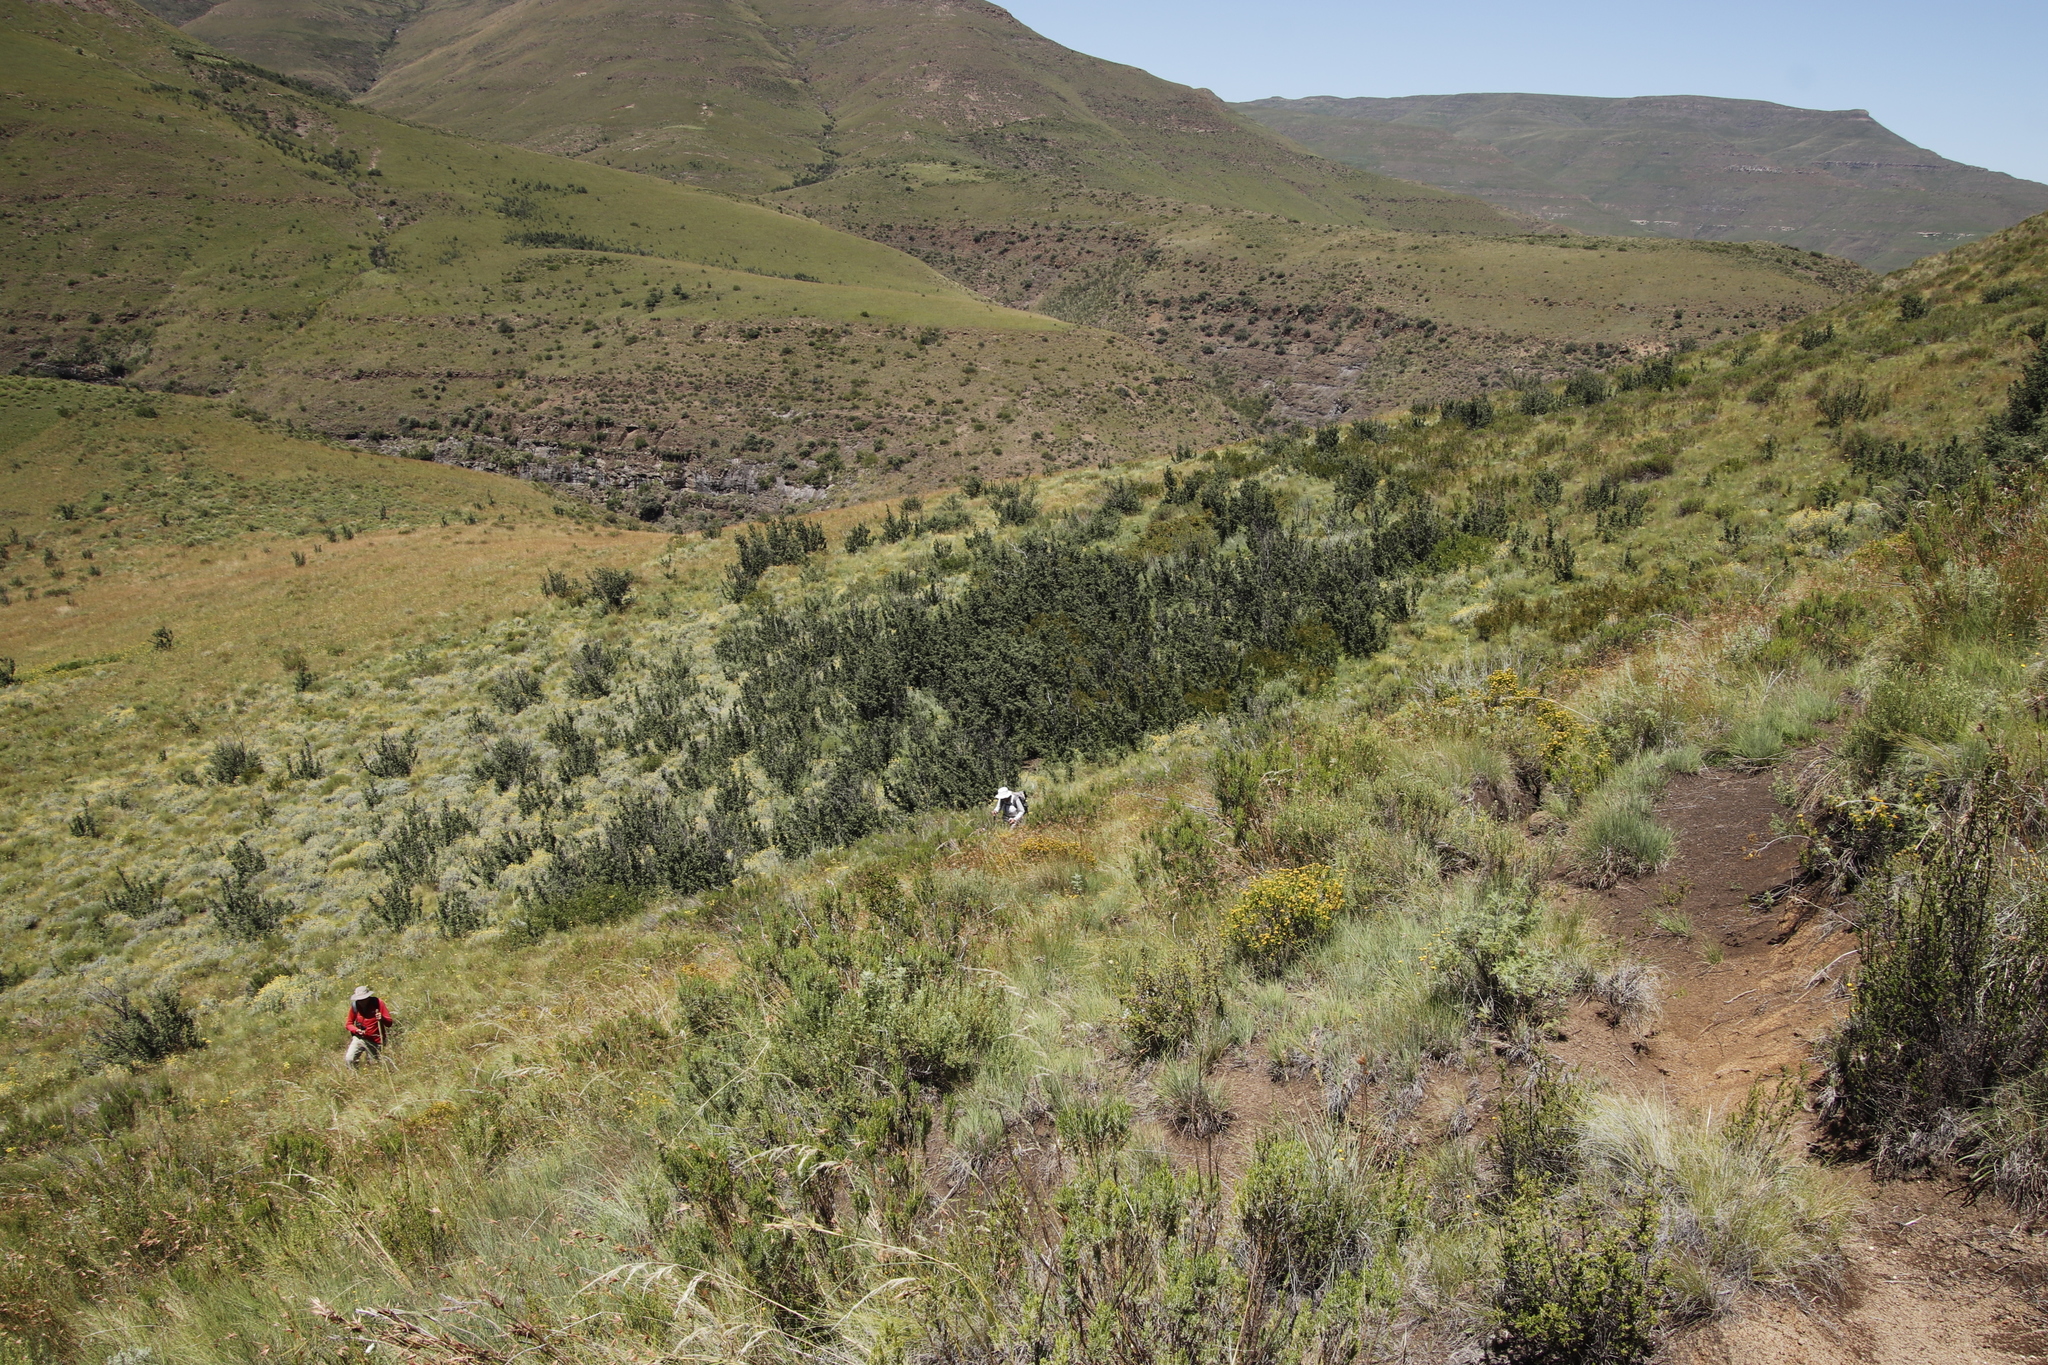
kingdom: Plantae
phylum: Tracheophyta
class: Magnoliopsida
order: Rosales
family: Rosaceae
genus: Leucosidea
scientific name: Leucosidea sericea
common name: Oldwood
